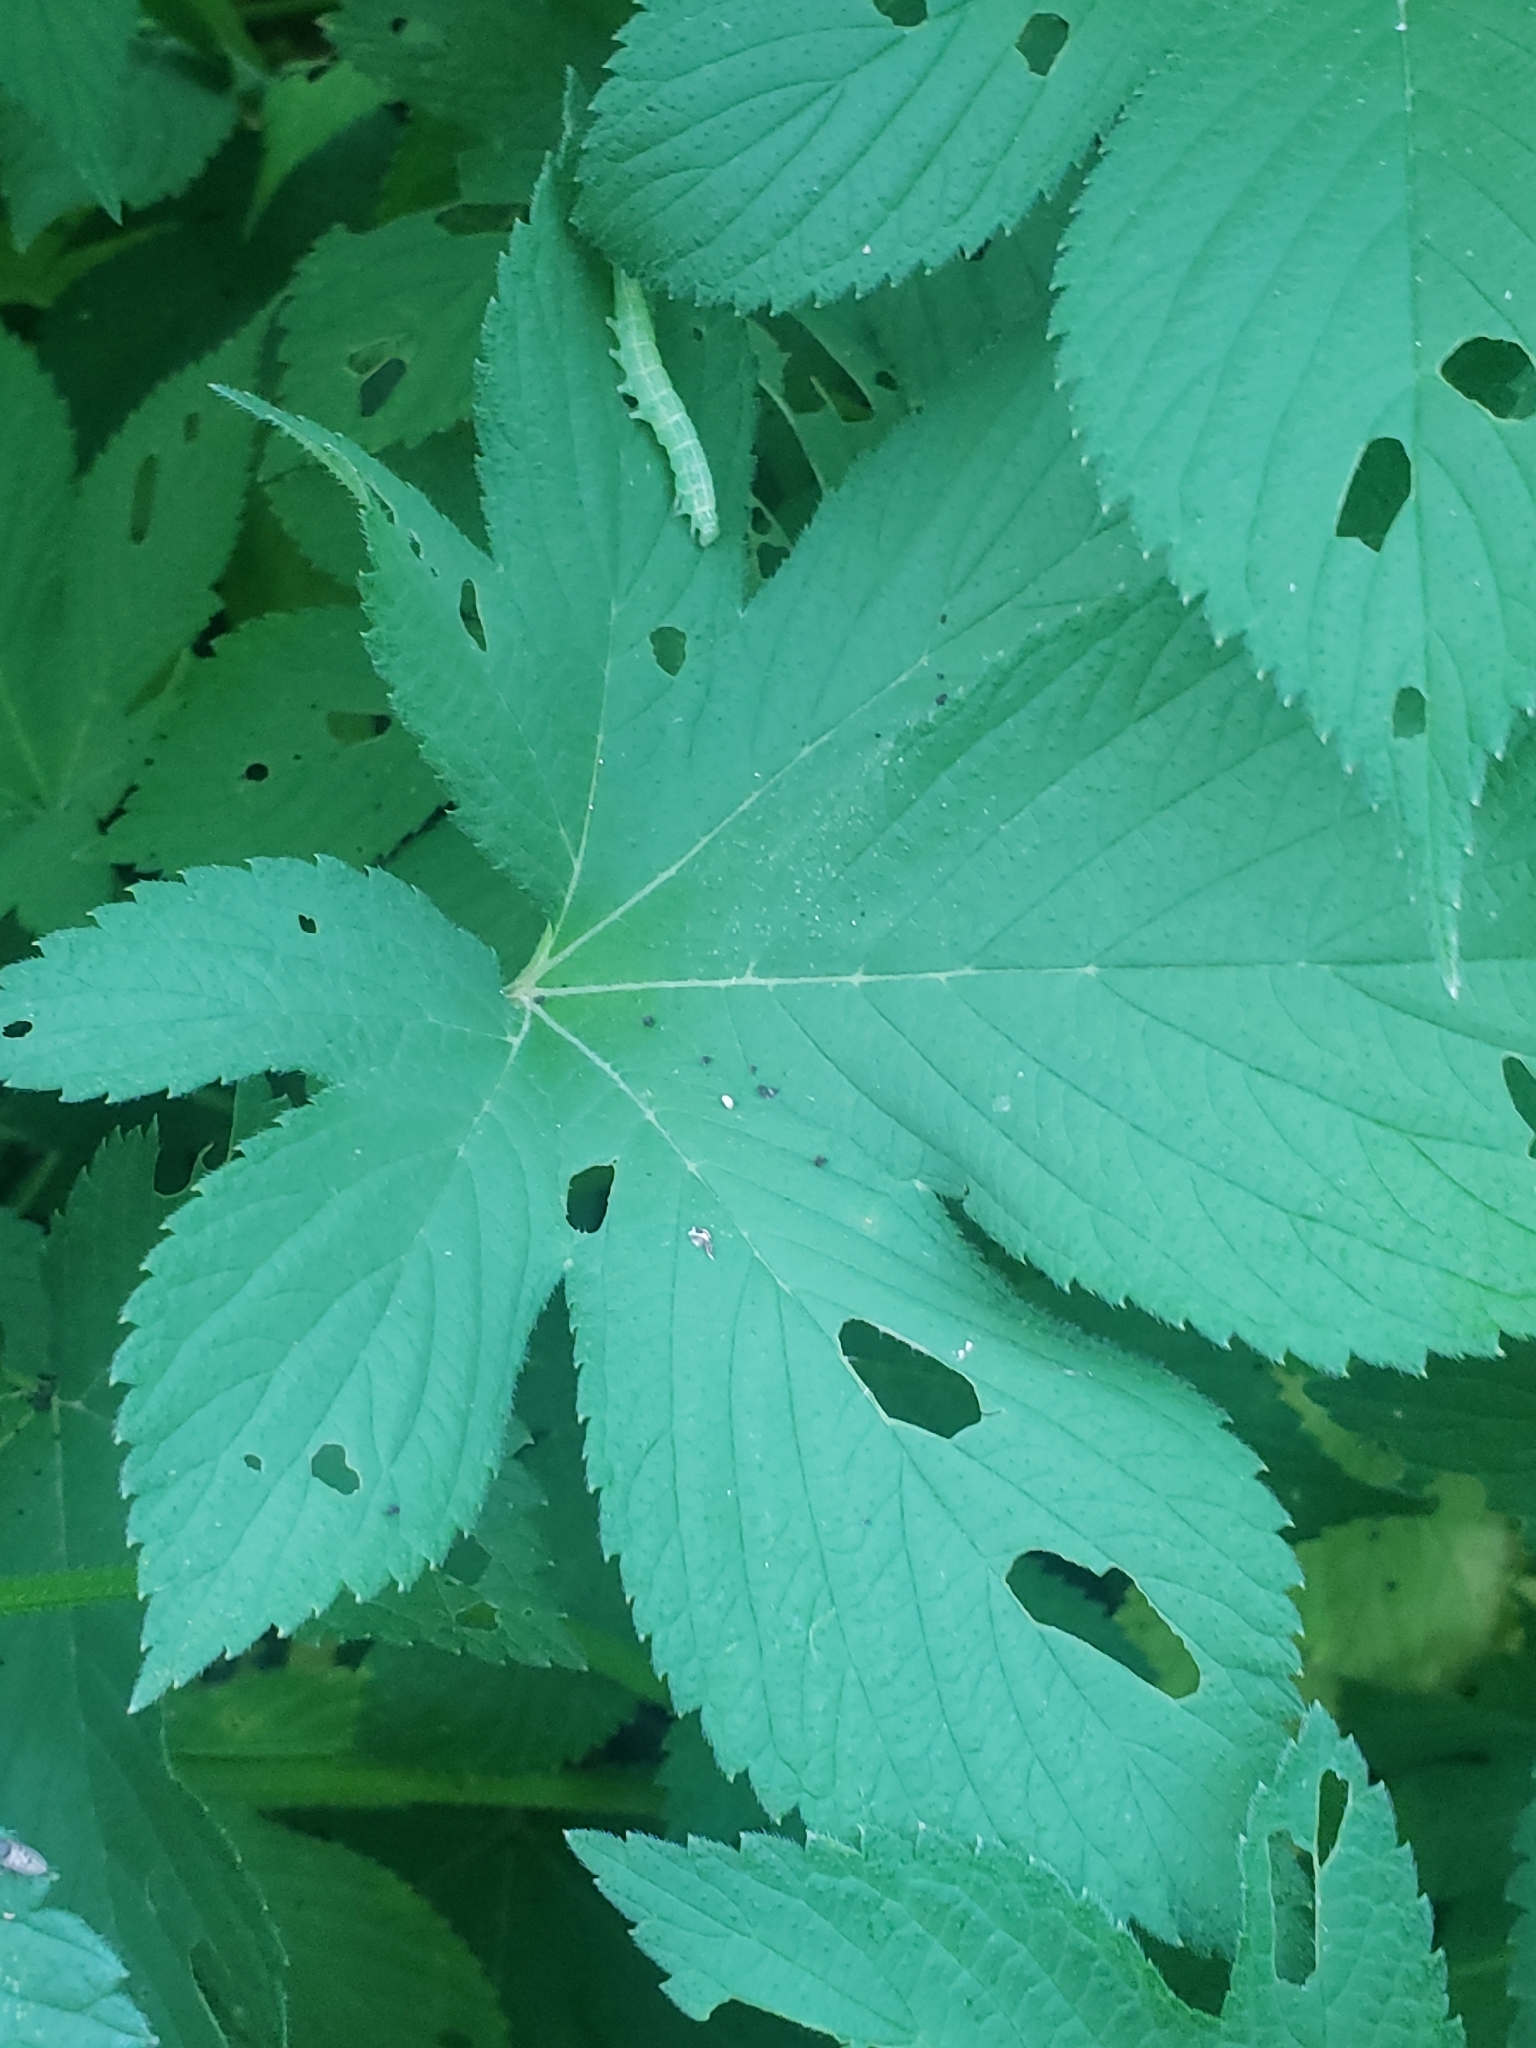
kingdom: Animalia
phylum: Arthropoda
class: Insecta
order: Lepidoptera
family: Noctuidae
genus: Orthosia
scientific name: Orthosia hibisci
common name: Green fruitworm
